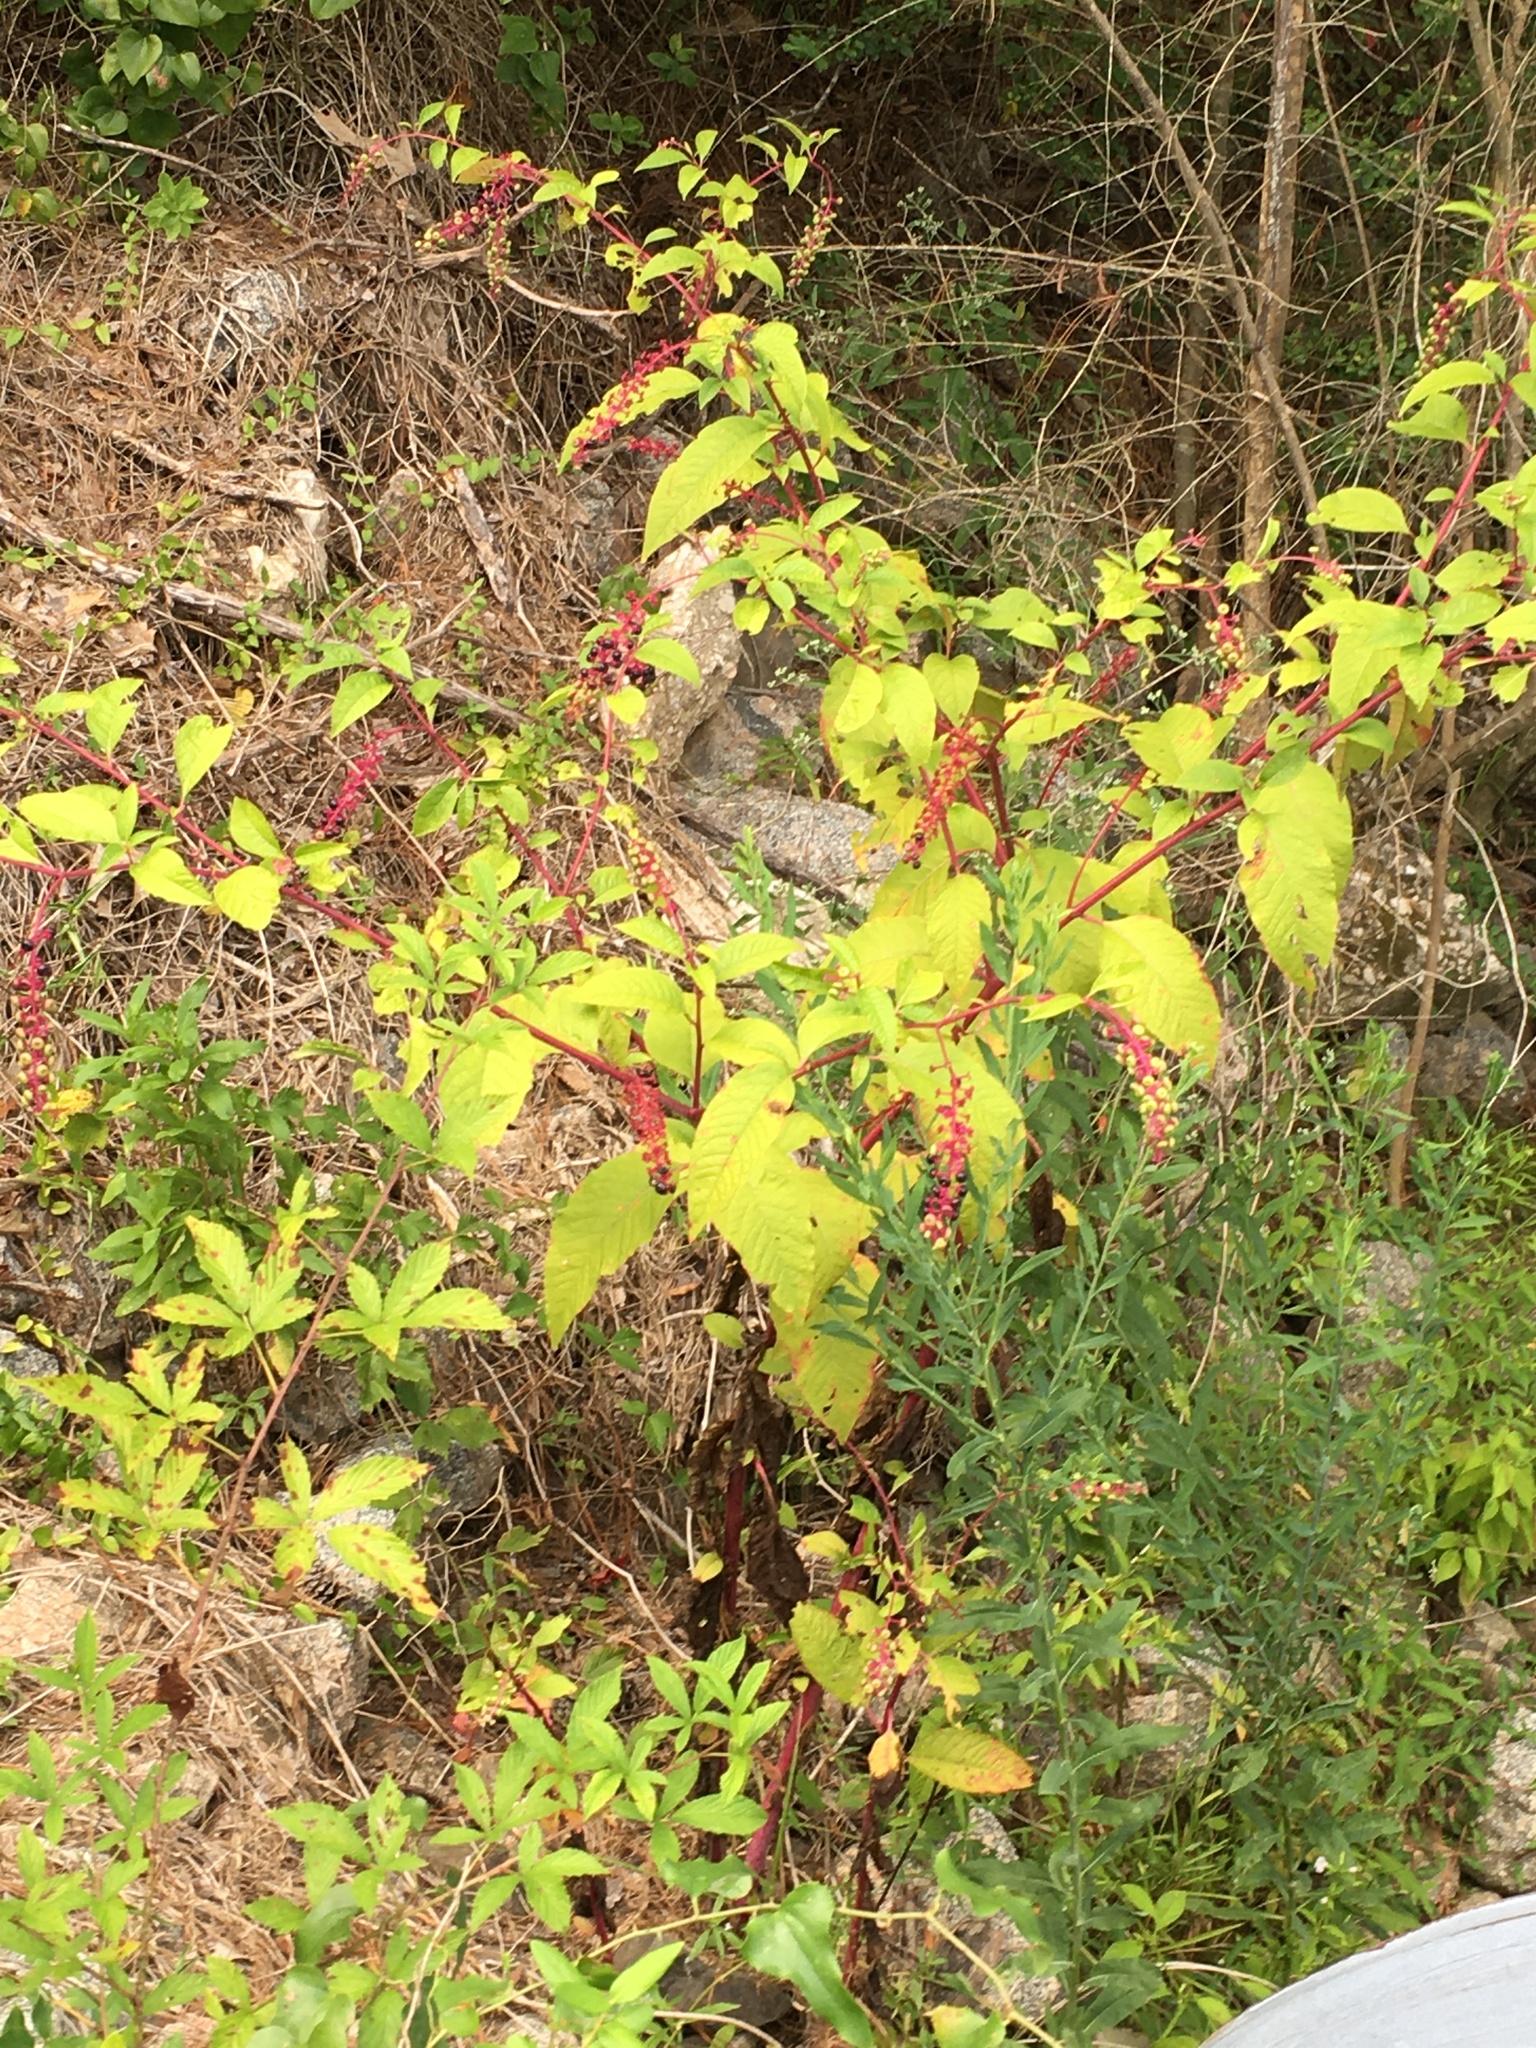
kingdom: Plantae
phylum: Tracheophyta
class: Magnoliopsida
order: Caryophyllales
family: Phytolaccaceae
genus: Phytolacca
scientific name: Phytolacca americana
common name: American pokeweed
